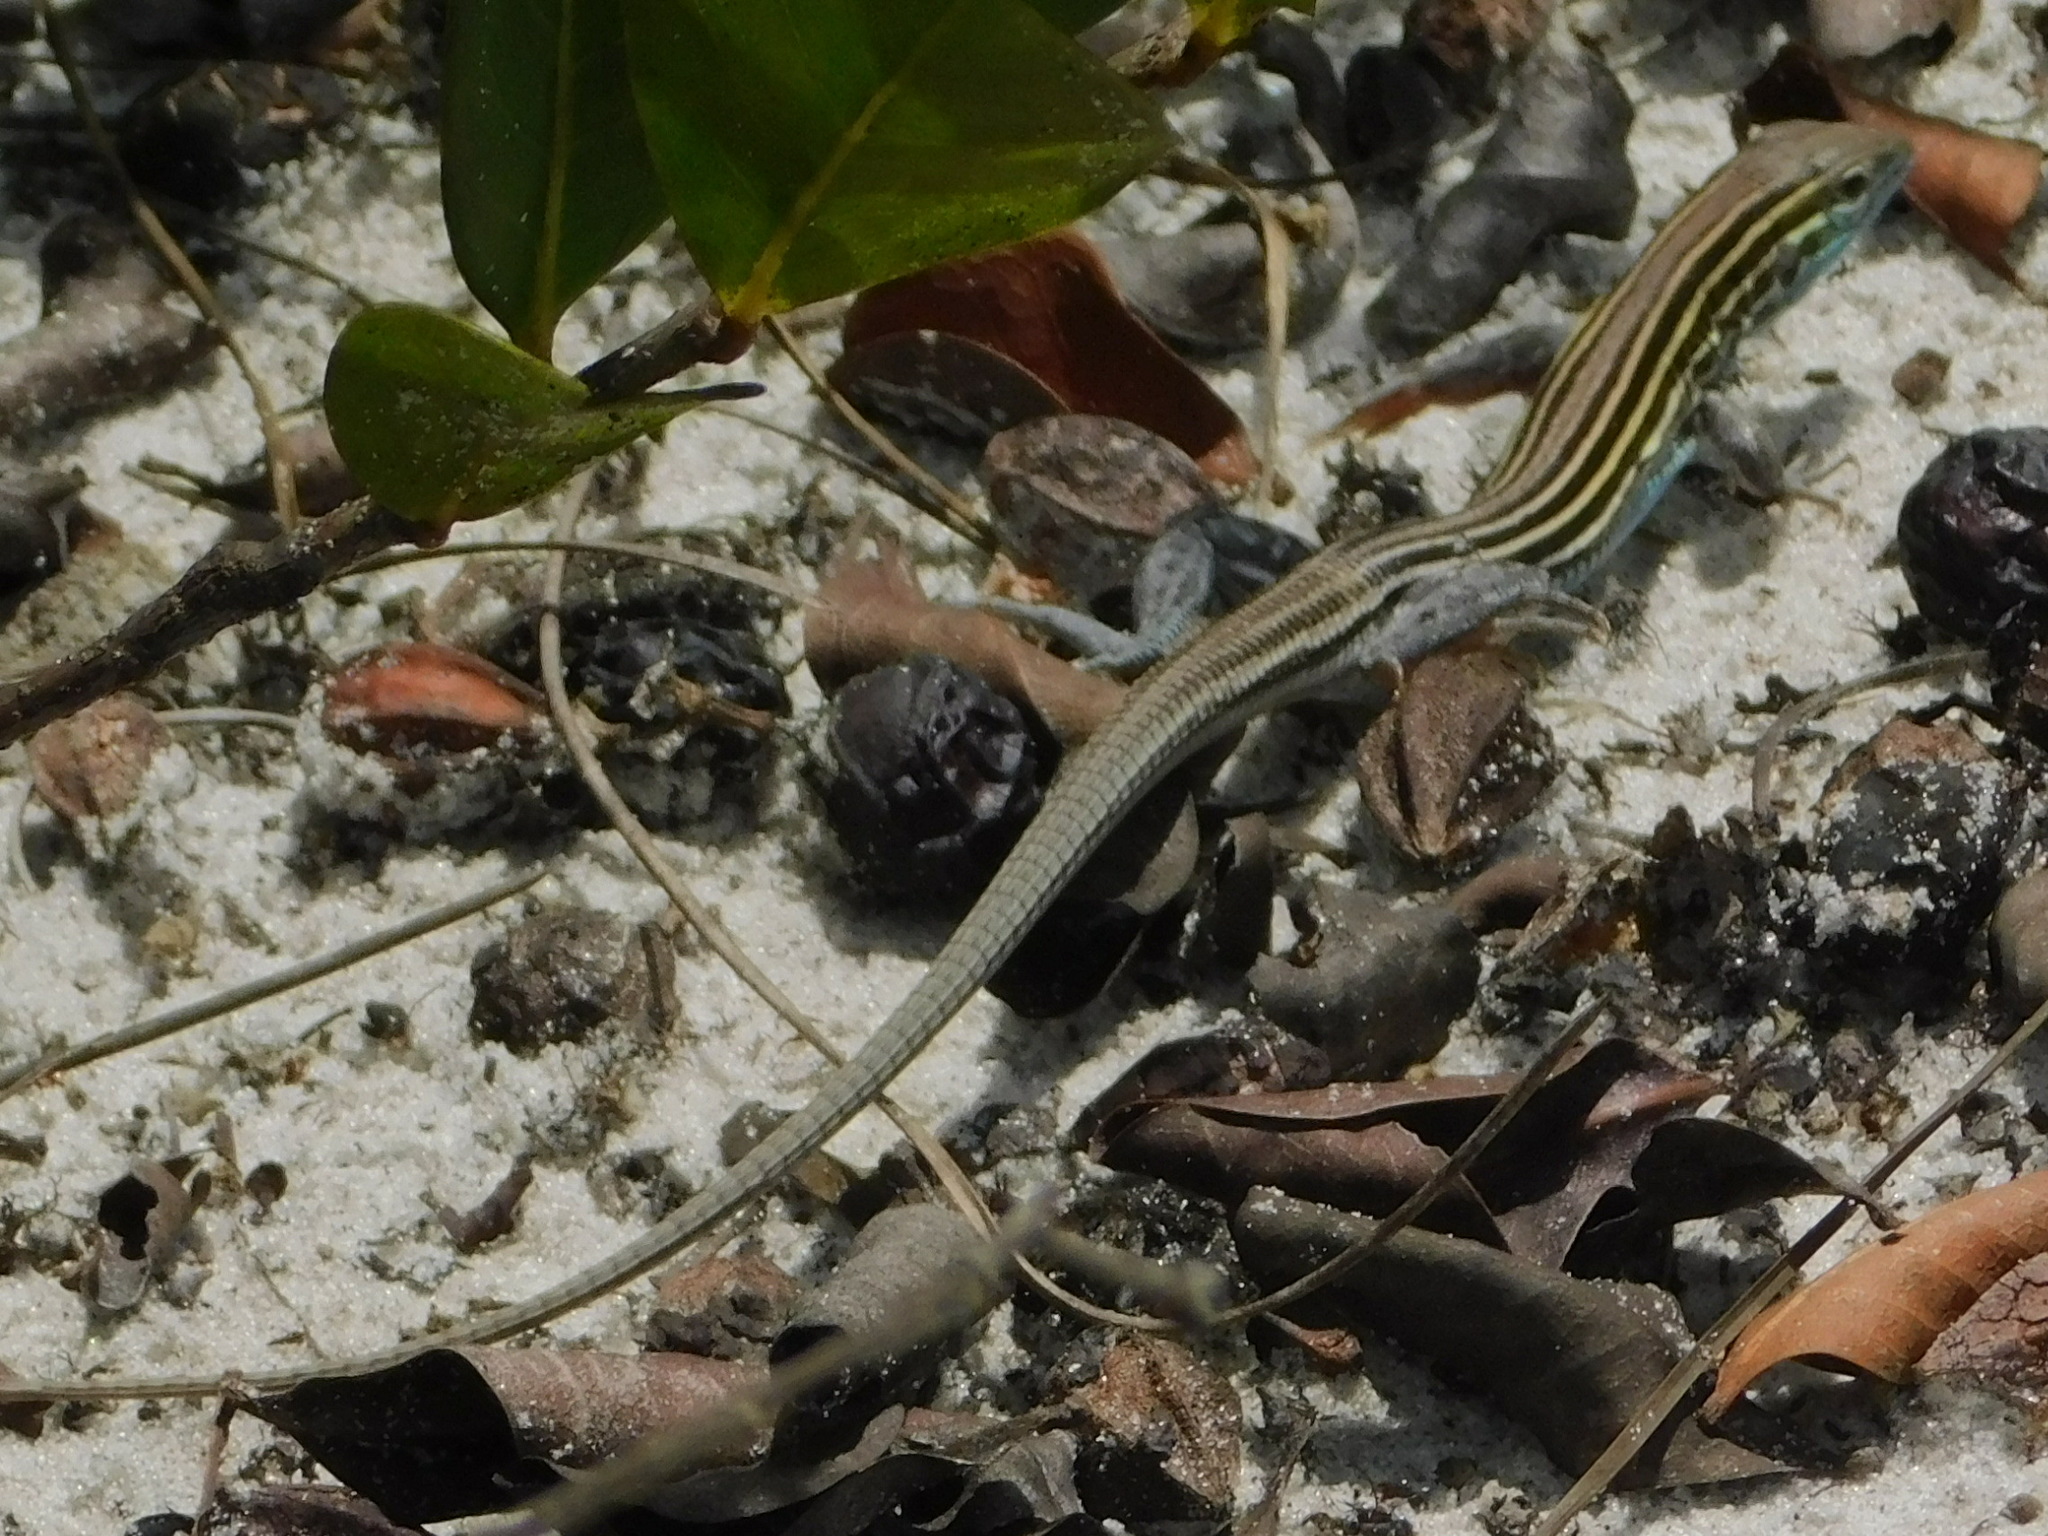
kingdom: Animalia
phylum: Chordata
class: Squamata
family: Teiidae
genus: Aspidoscelis
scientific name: Aspidoscelis sexlineatus
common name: Six-lined racerunner
